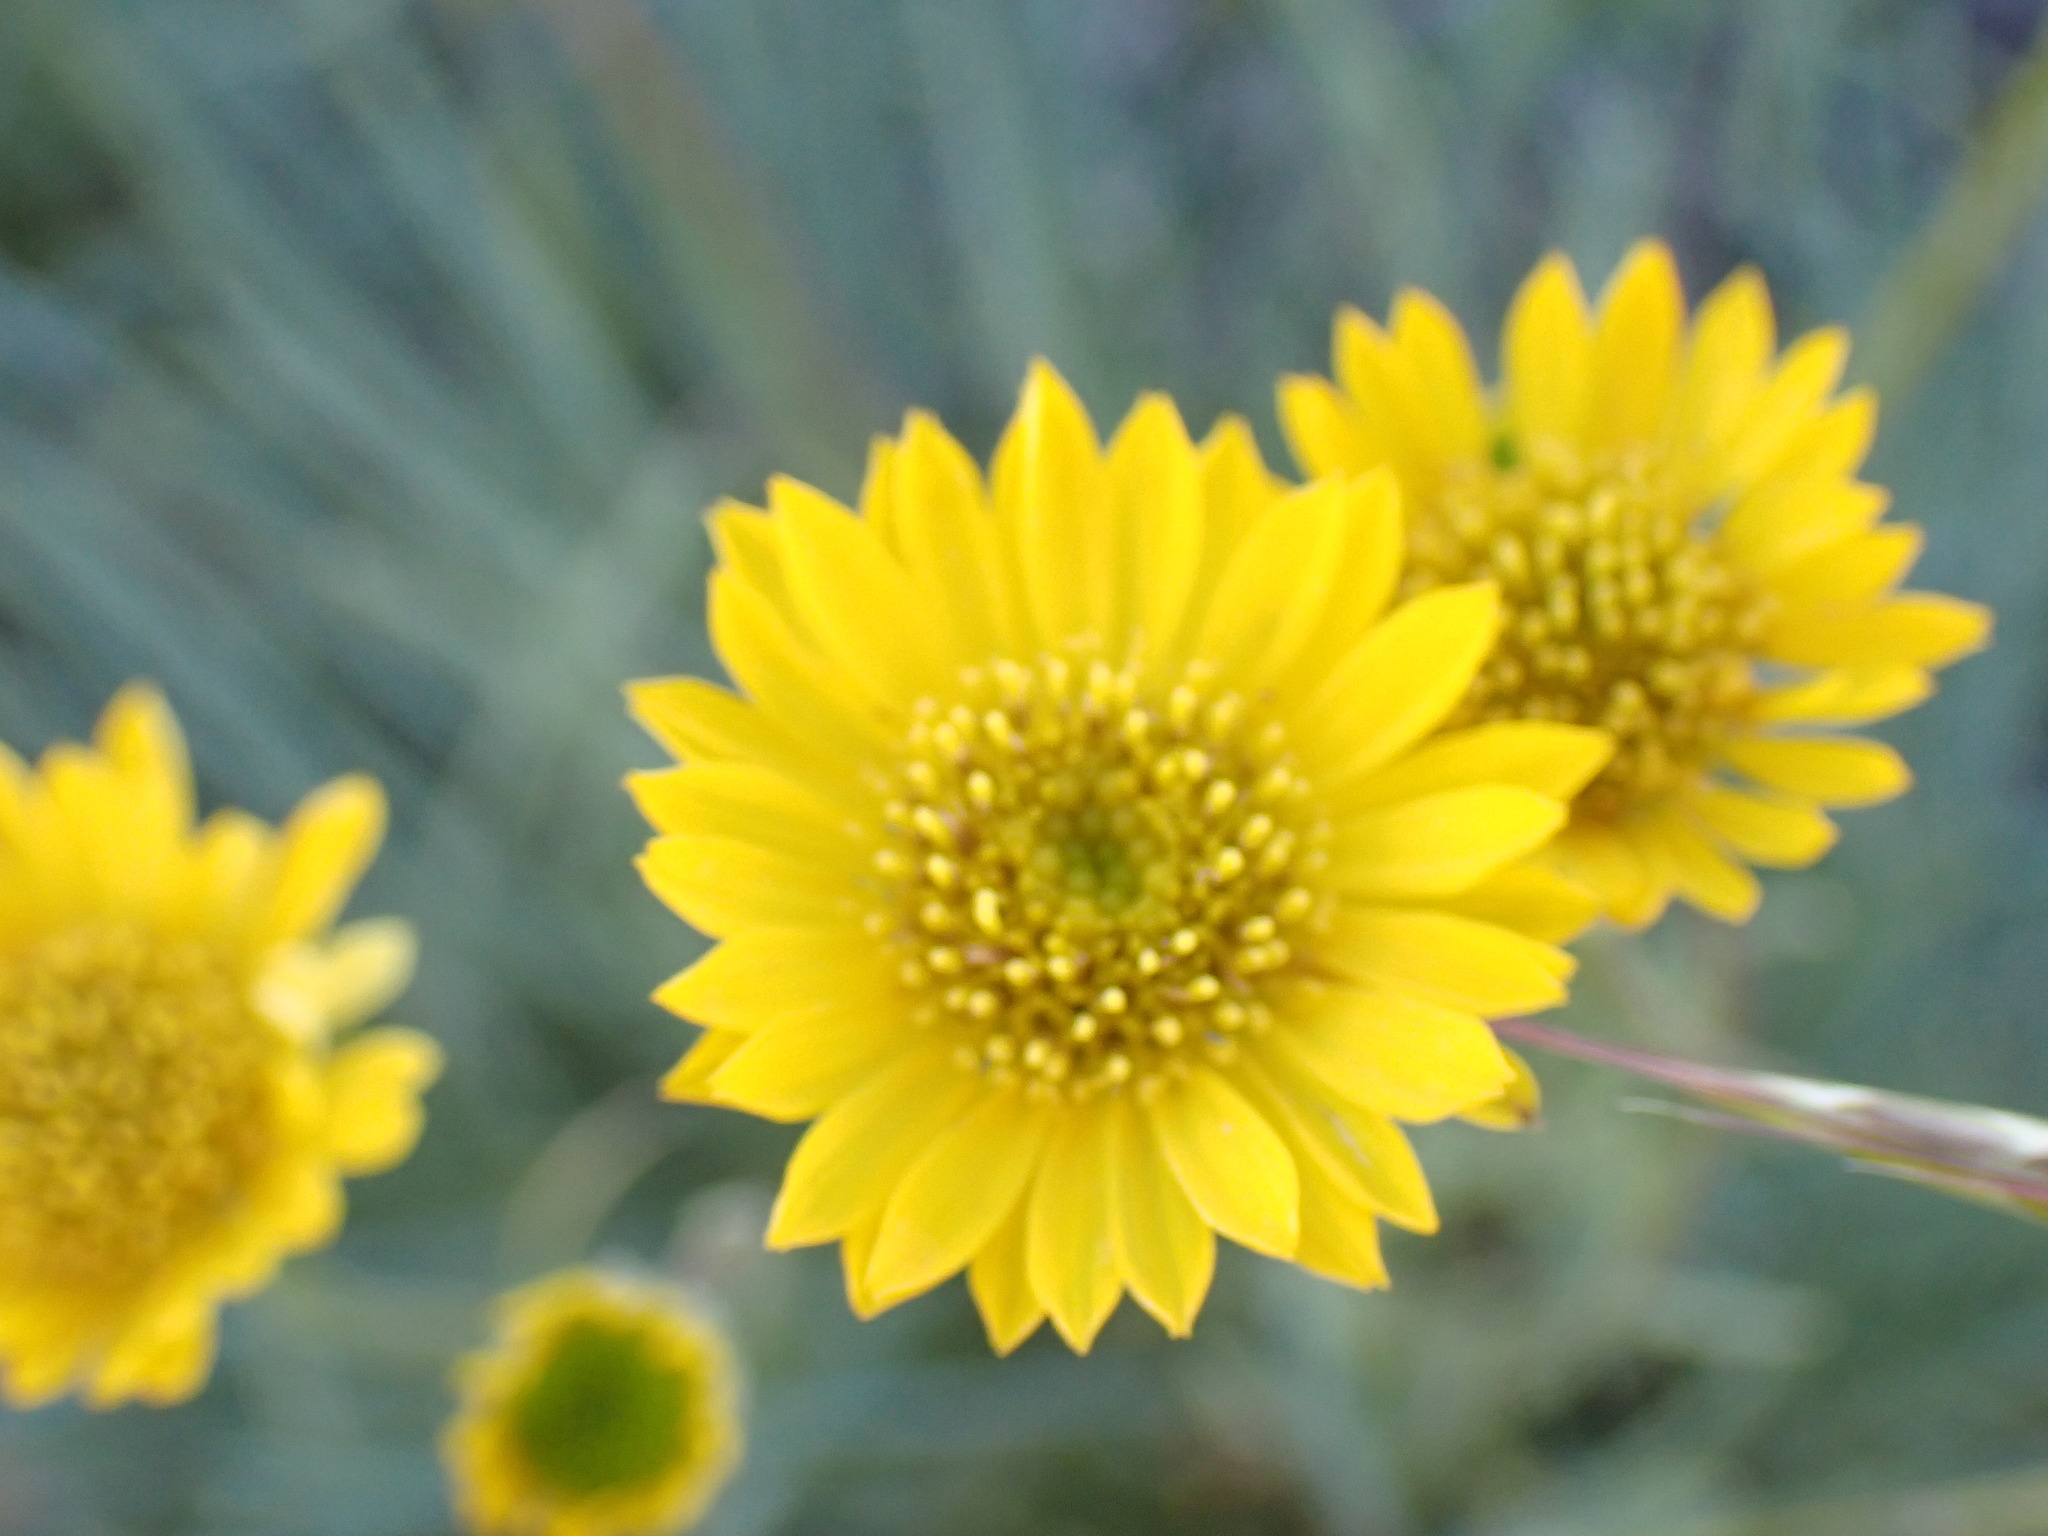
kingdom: Plantae
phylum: Tracheophyta
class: Magnoliopsida
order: Asterales
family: Asteraceae
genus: Erigeron
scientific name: Erigeron linearis
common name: Desert yellow fleabane
